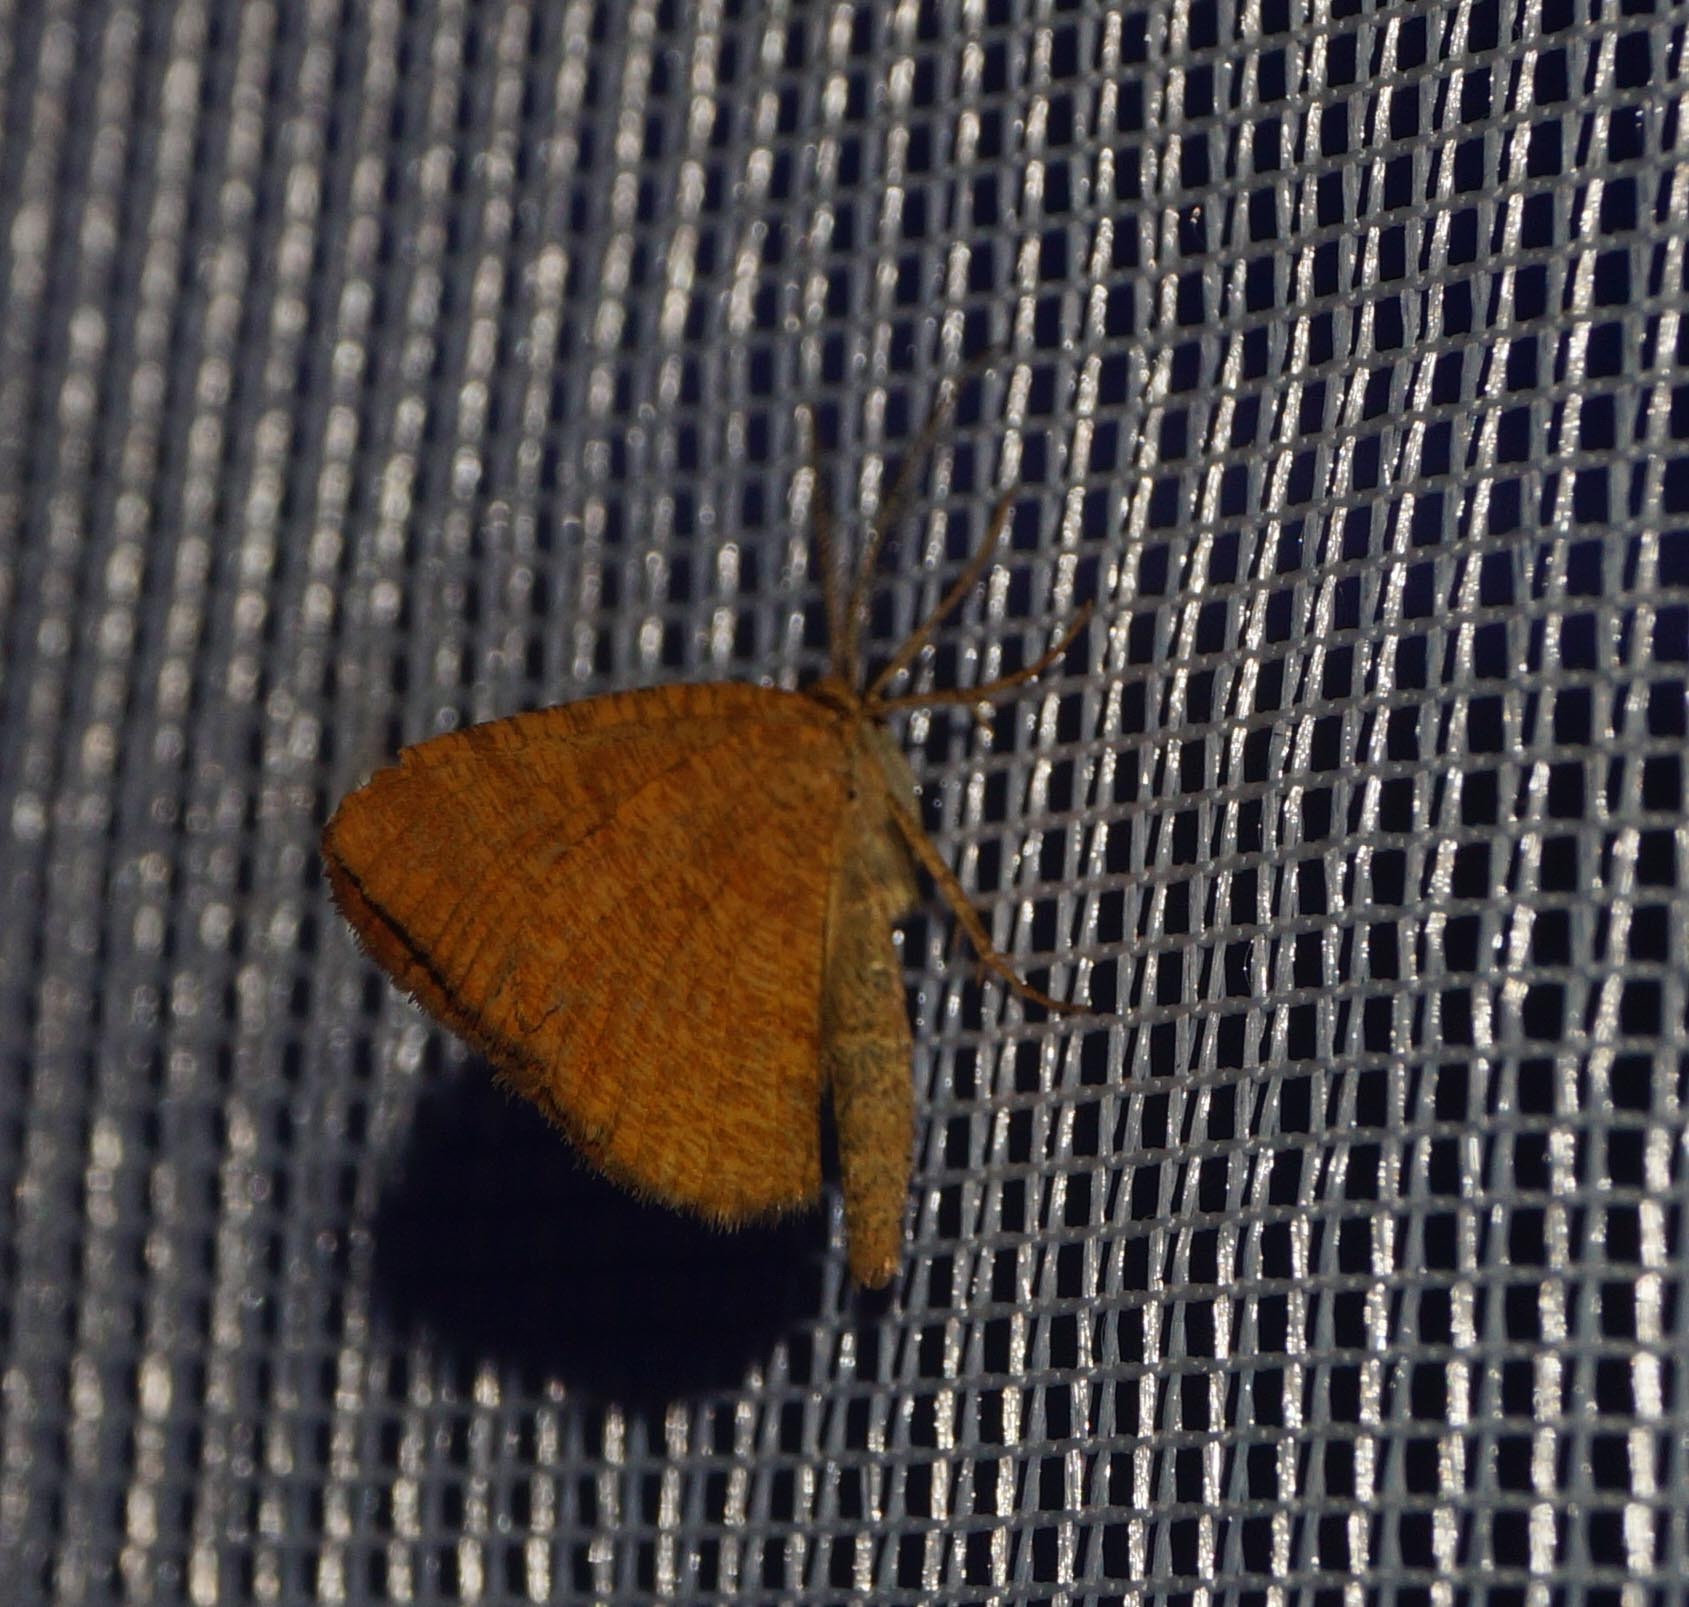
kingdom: Animalia
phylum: Arthropoda
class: Insecta
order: Lepidoptera
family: Geometridae
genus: Macaria
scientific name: Macaria brunneata
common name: Rannoch looper
